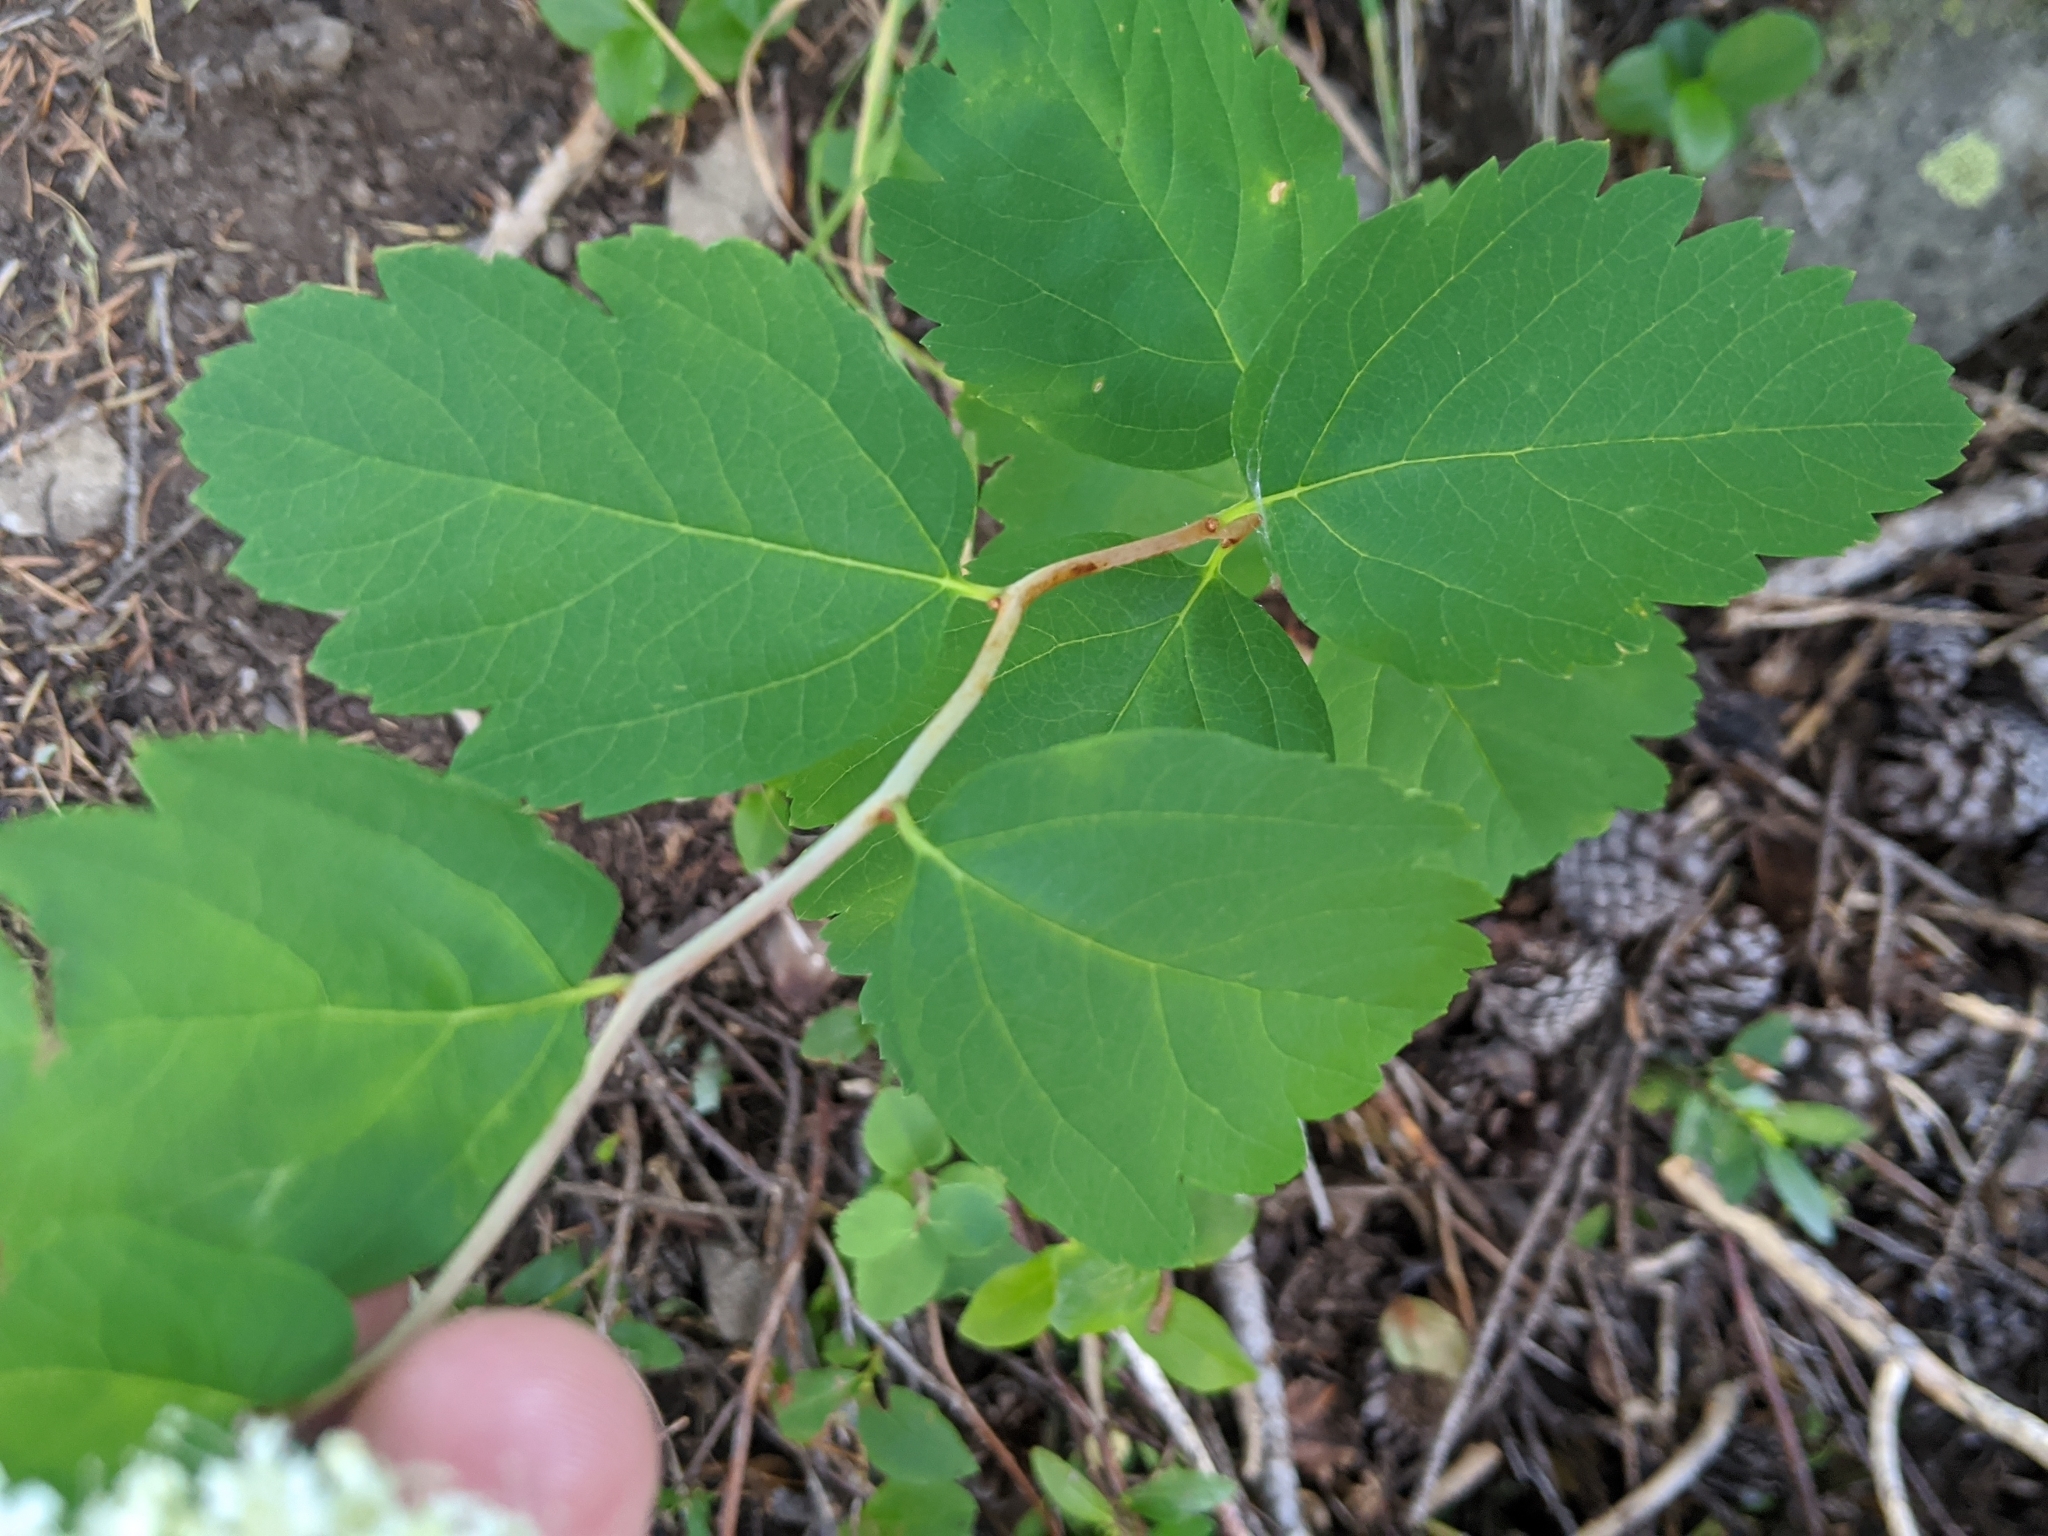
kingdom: Plantae
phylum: Tracheophyta
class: Magnoliopsida
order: Rosales
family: Rosaceae
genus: Spiraea
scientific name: Spiraea lucida
